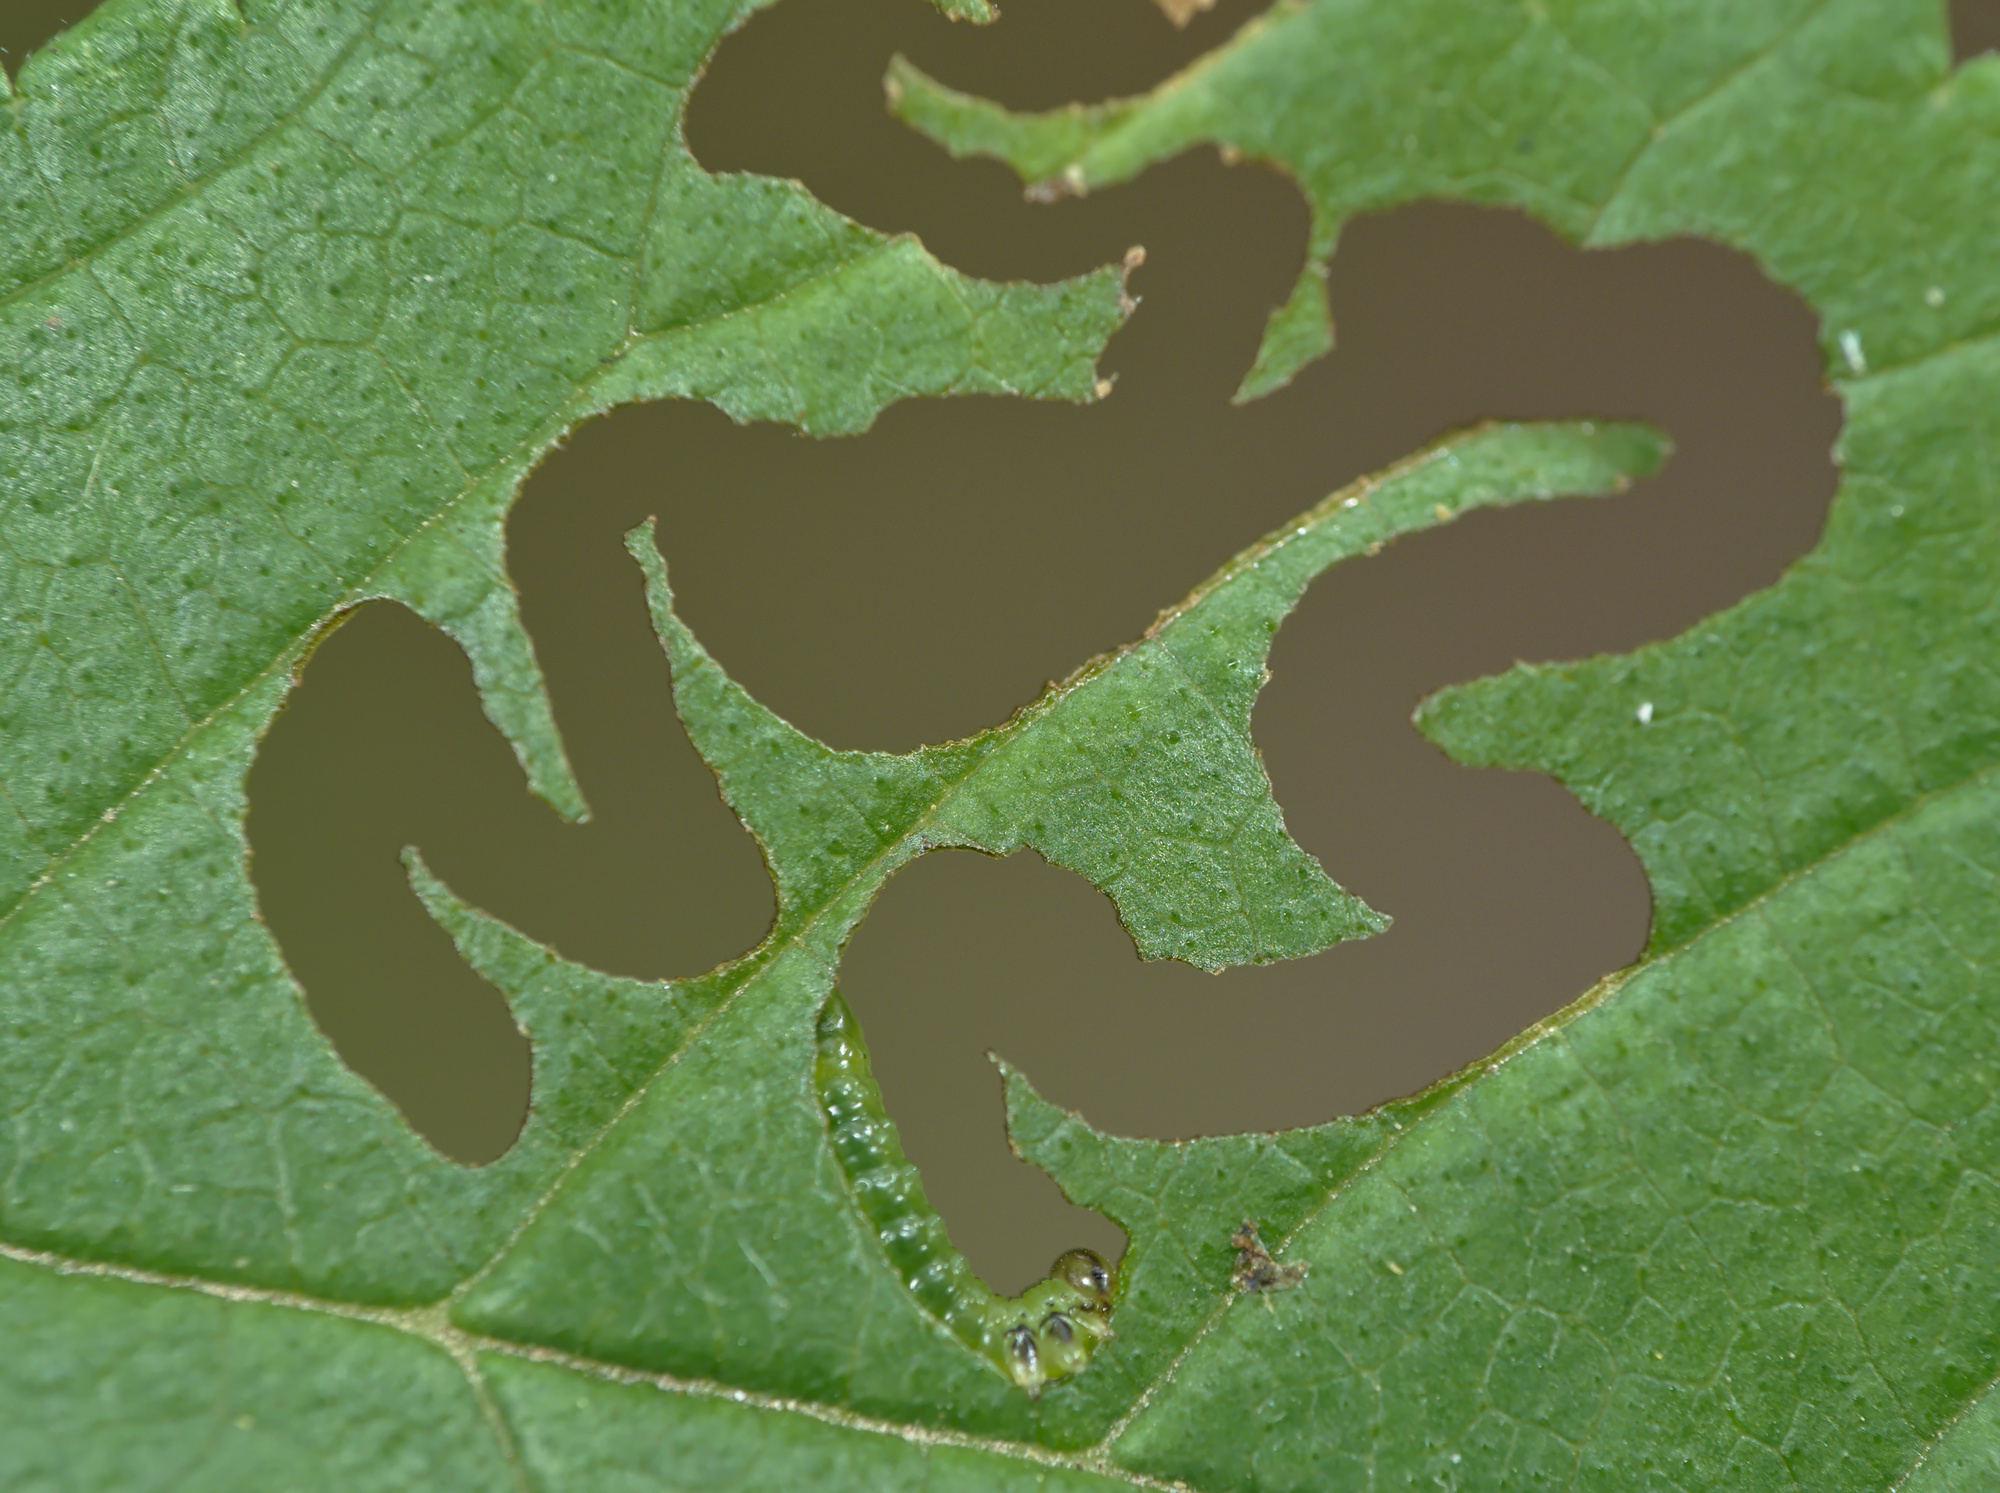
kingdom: Animalia
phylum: Arthropoda
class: Insecta
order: Hymenoptera
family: Argidae
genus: Aproceros
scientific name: Aproceros leucopoda
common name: Zig-zag elm sawfly
